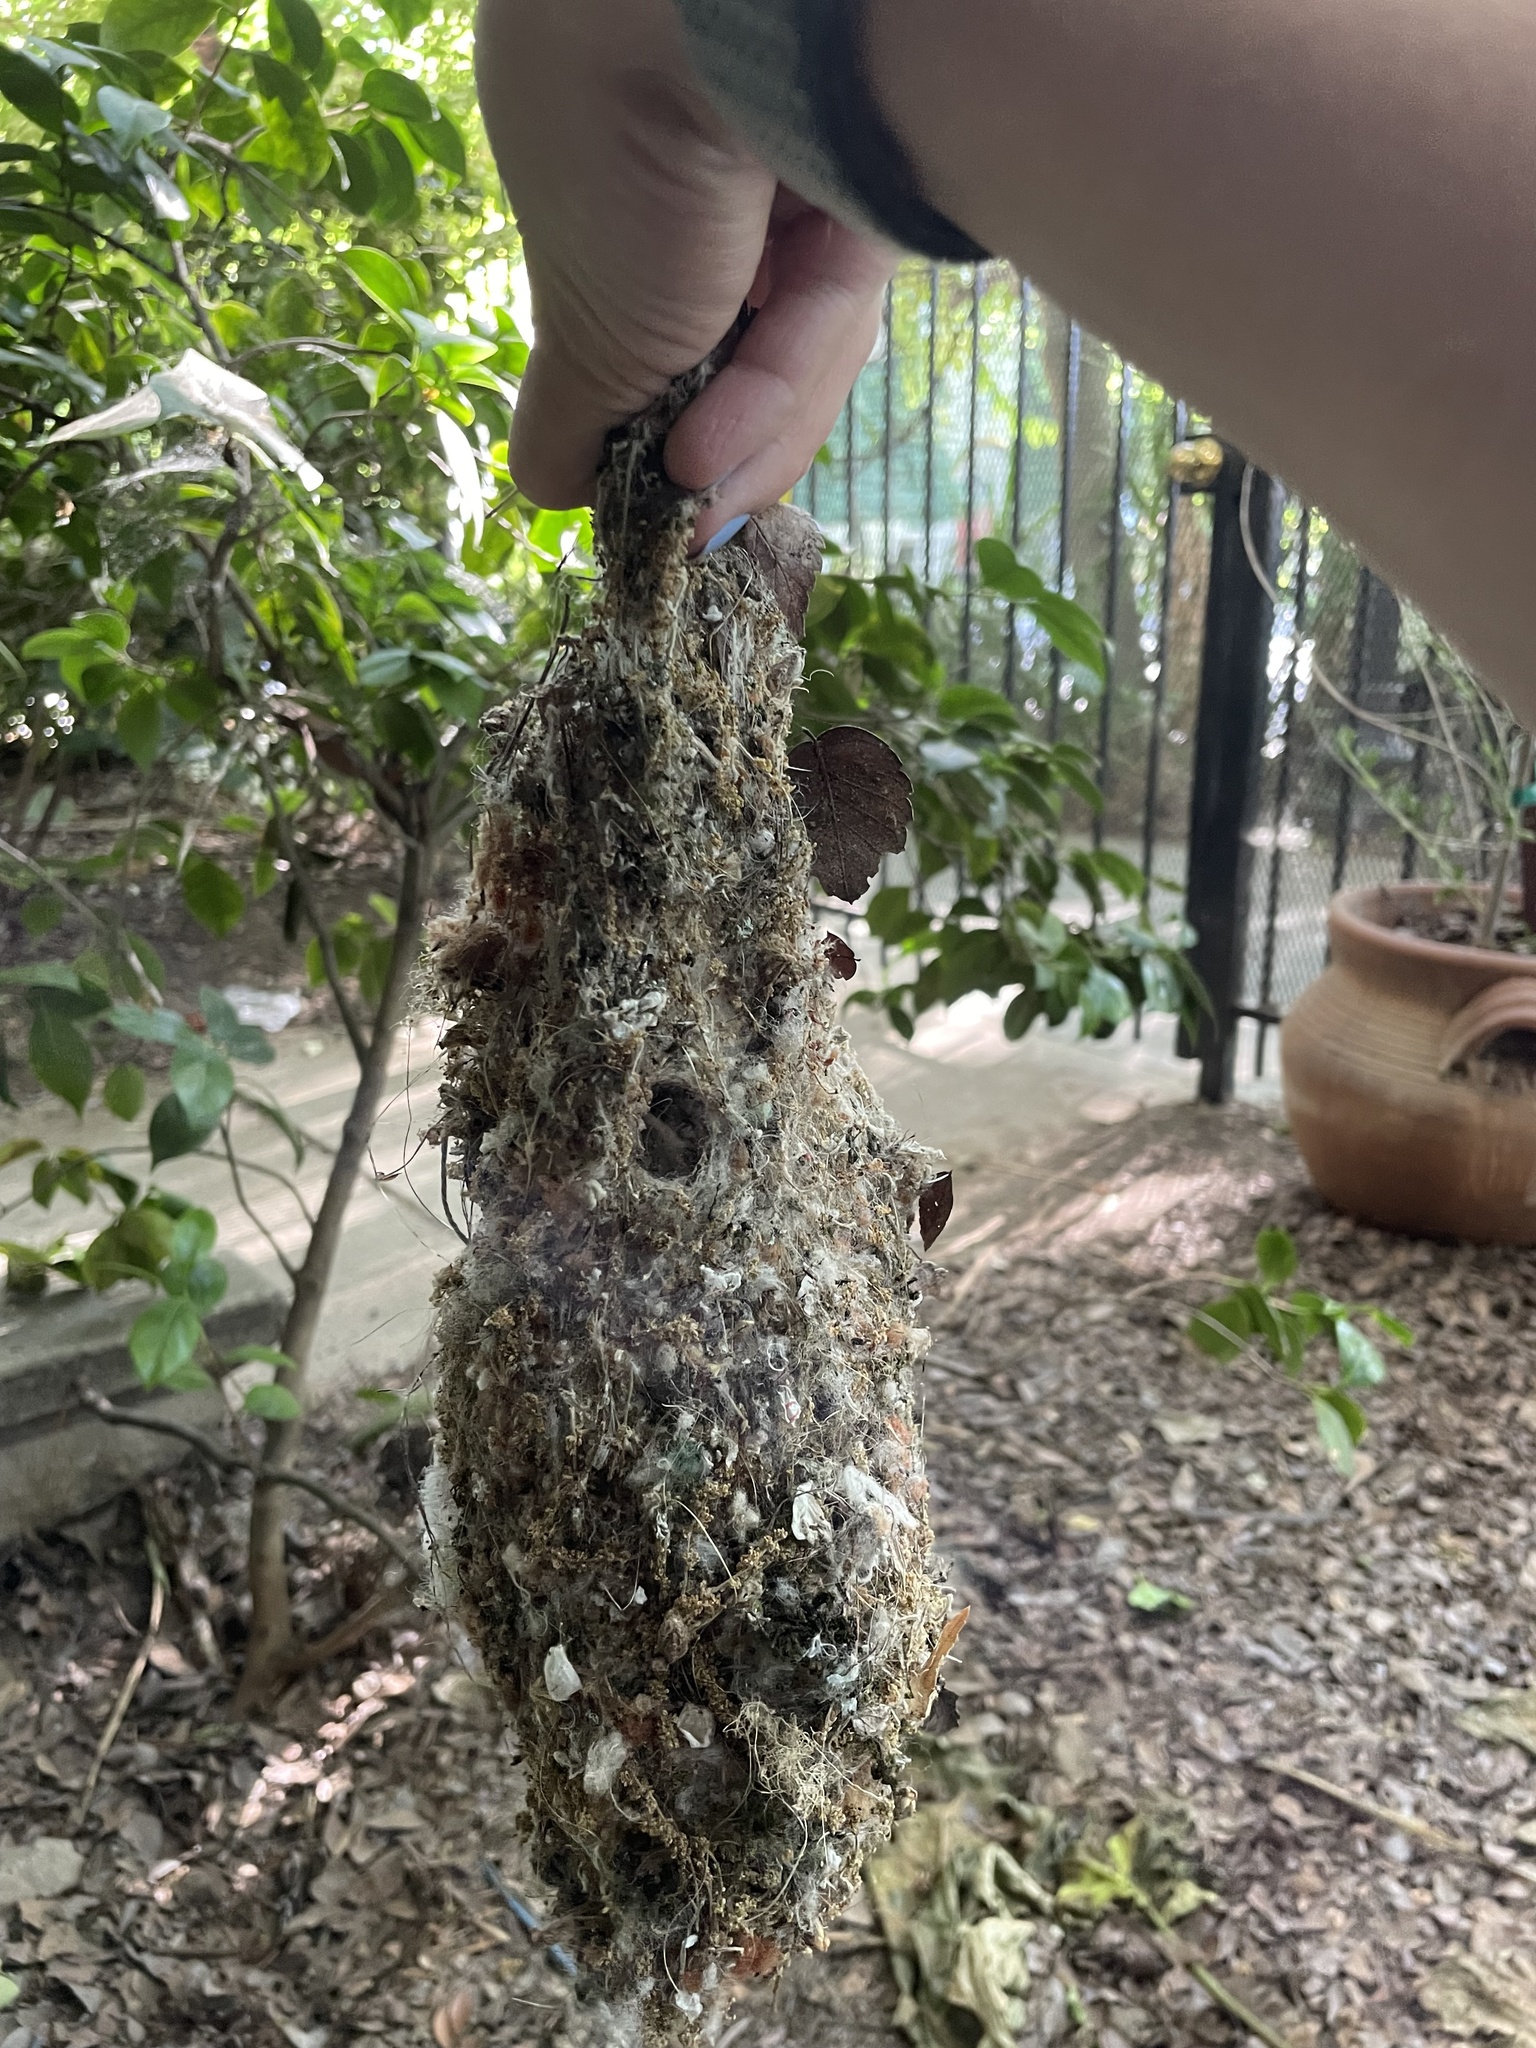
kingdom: Animalia
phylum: Chordata
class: Aves
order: Passeriformes
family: Aegithalidae
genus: Psaltriparus
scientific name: Psaltriparus minimus
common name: American bushtit
